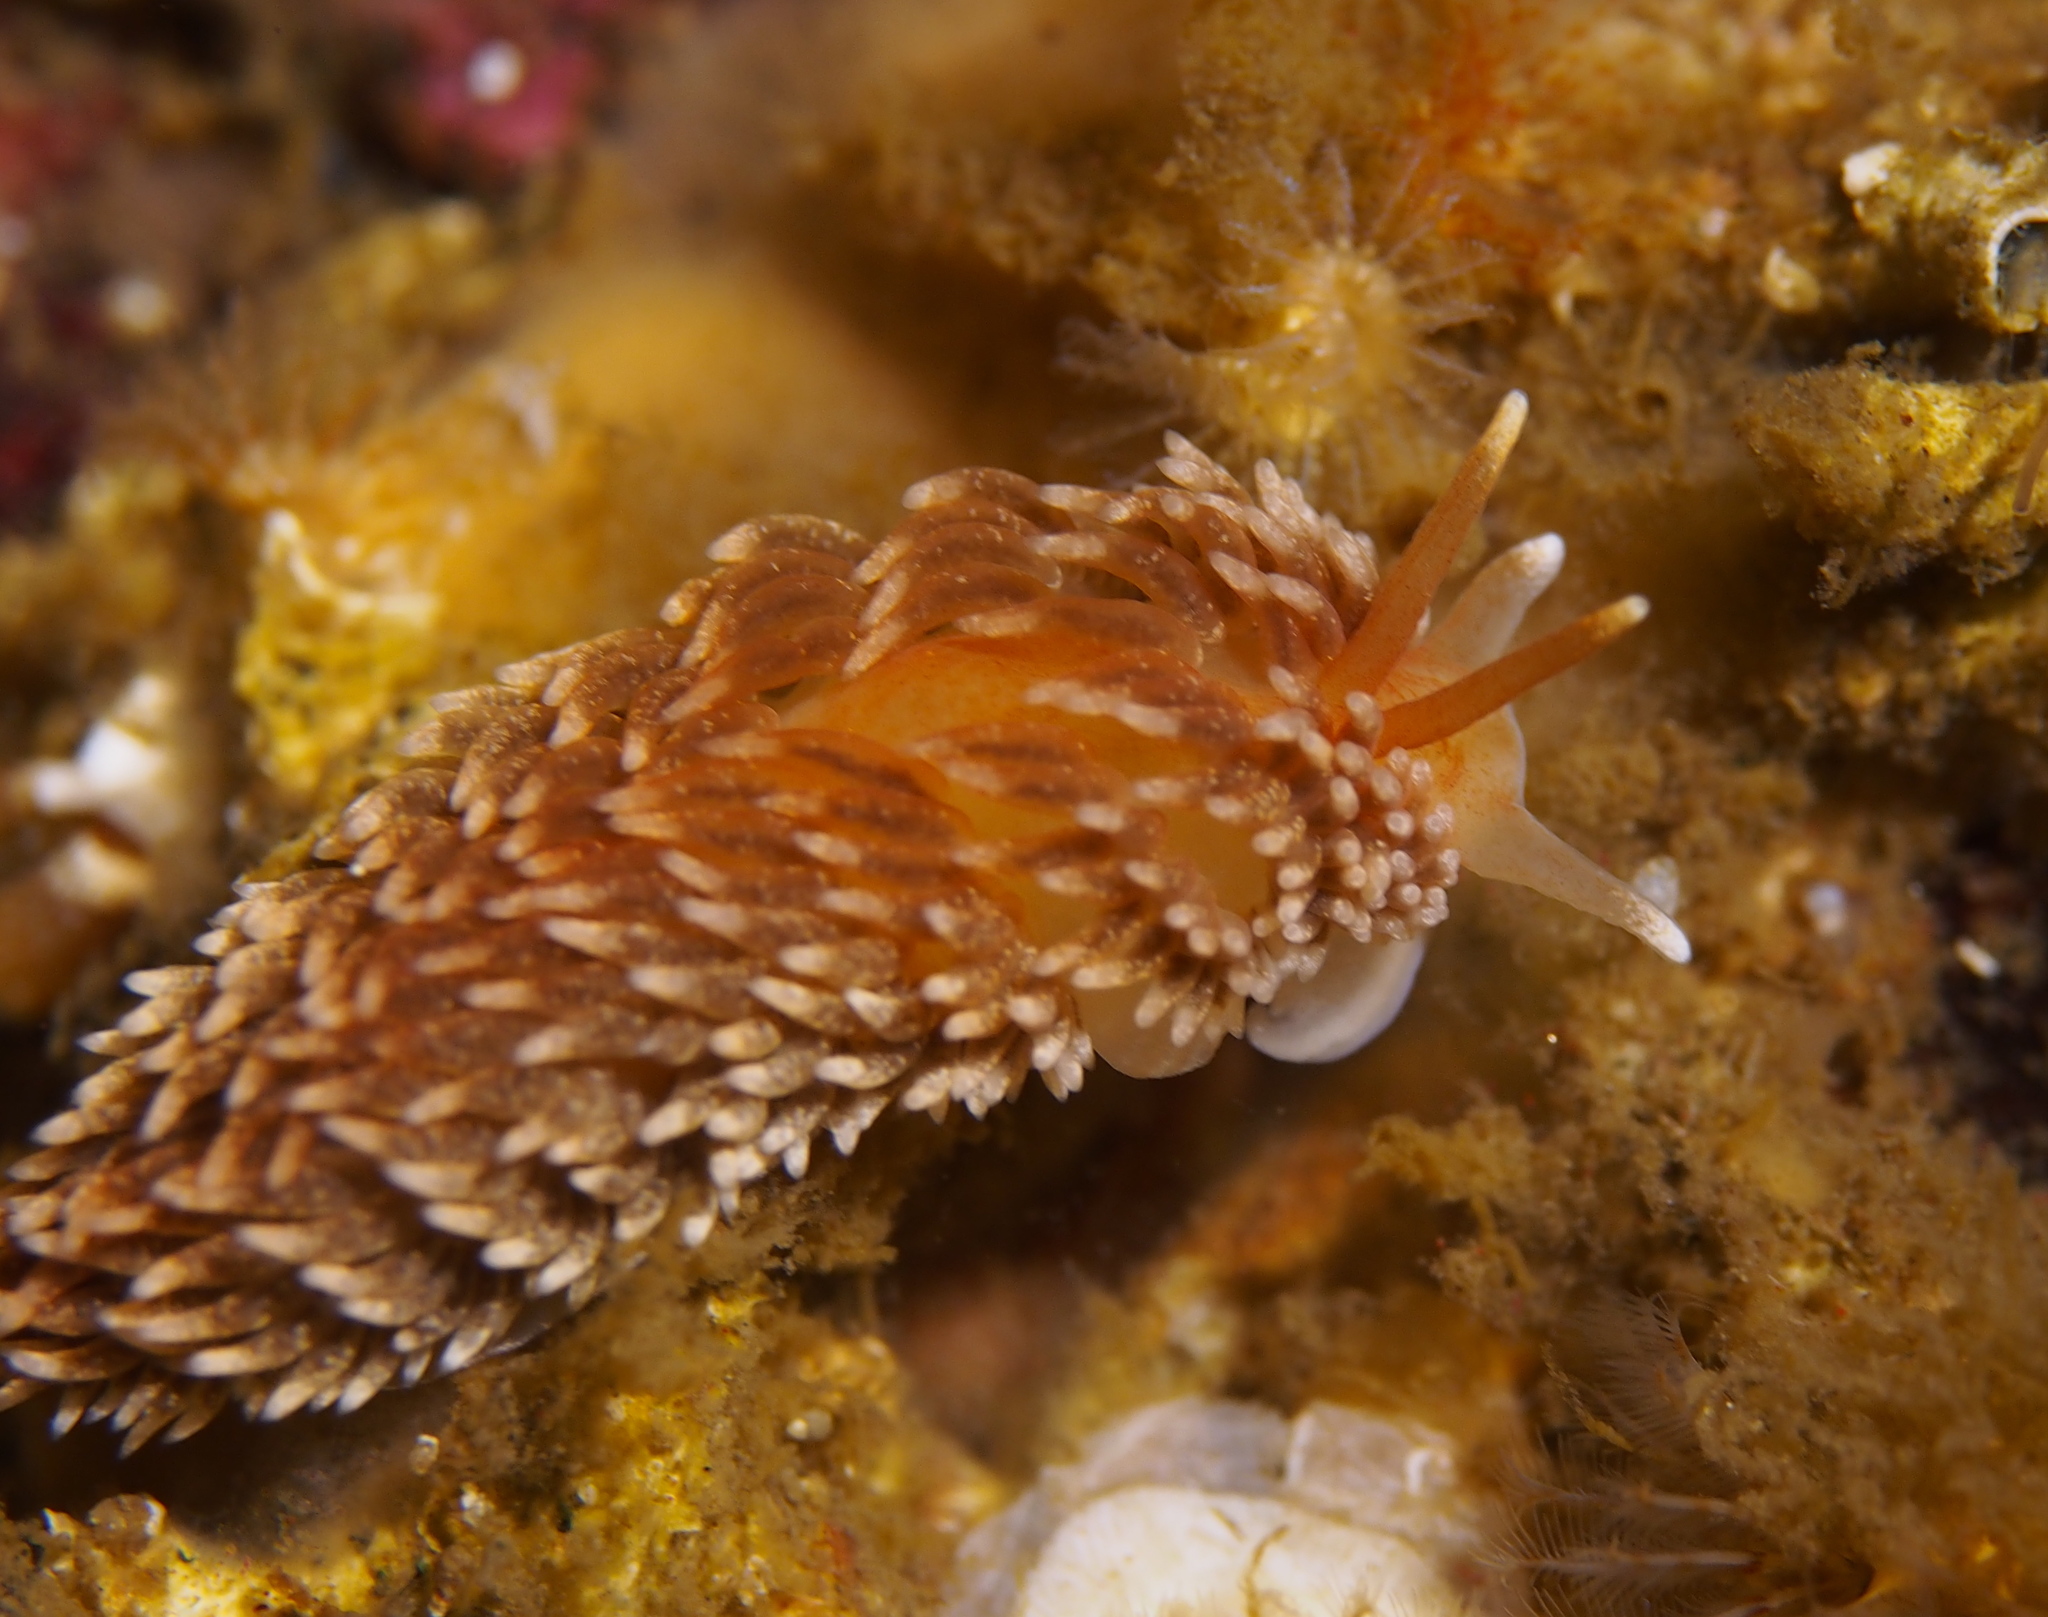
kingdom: Animalia
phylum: Mollusca
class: Gastropoda
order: Nudibranchia
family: Aeolidiidae
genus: Aeolidiella
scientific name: Aeolidiella glauca
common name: Orange-brown aeolid
